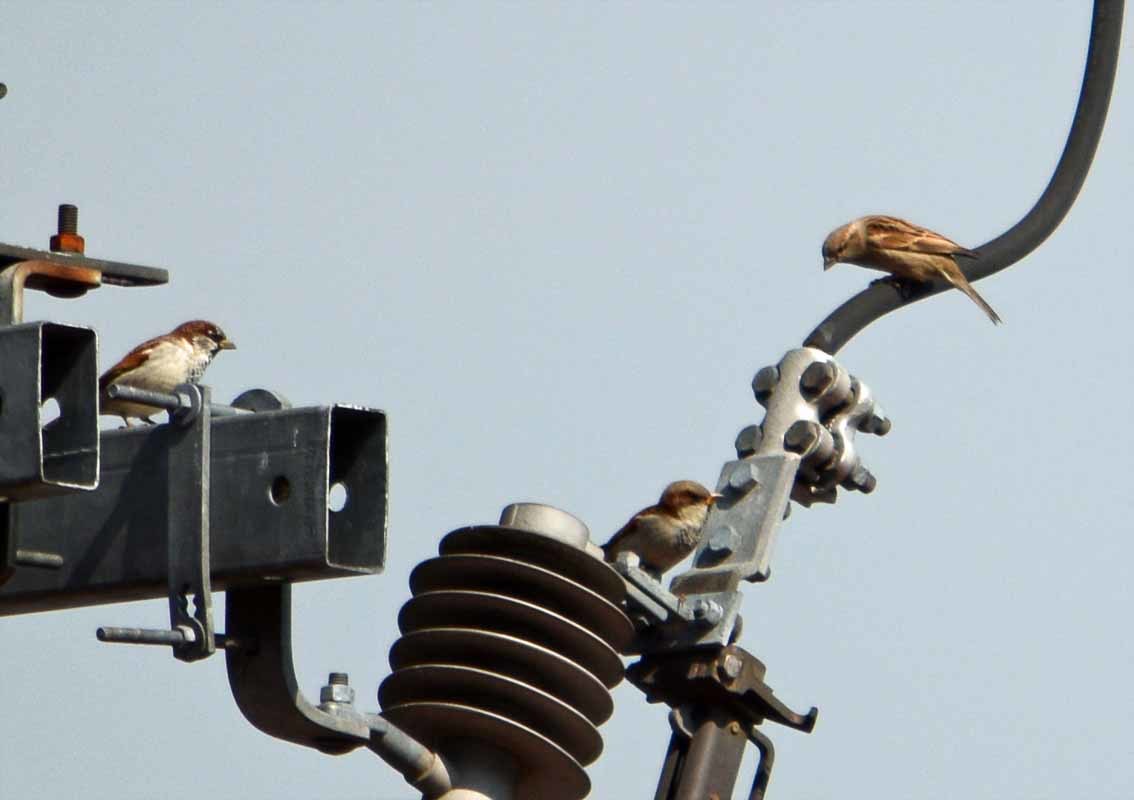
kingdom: Animalia
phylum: Chordata
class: Aves
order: Passeriformes
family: Passeridae
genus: Passer
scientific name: Passer domesticus
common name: House sparrow
